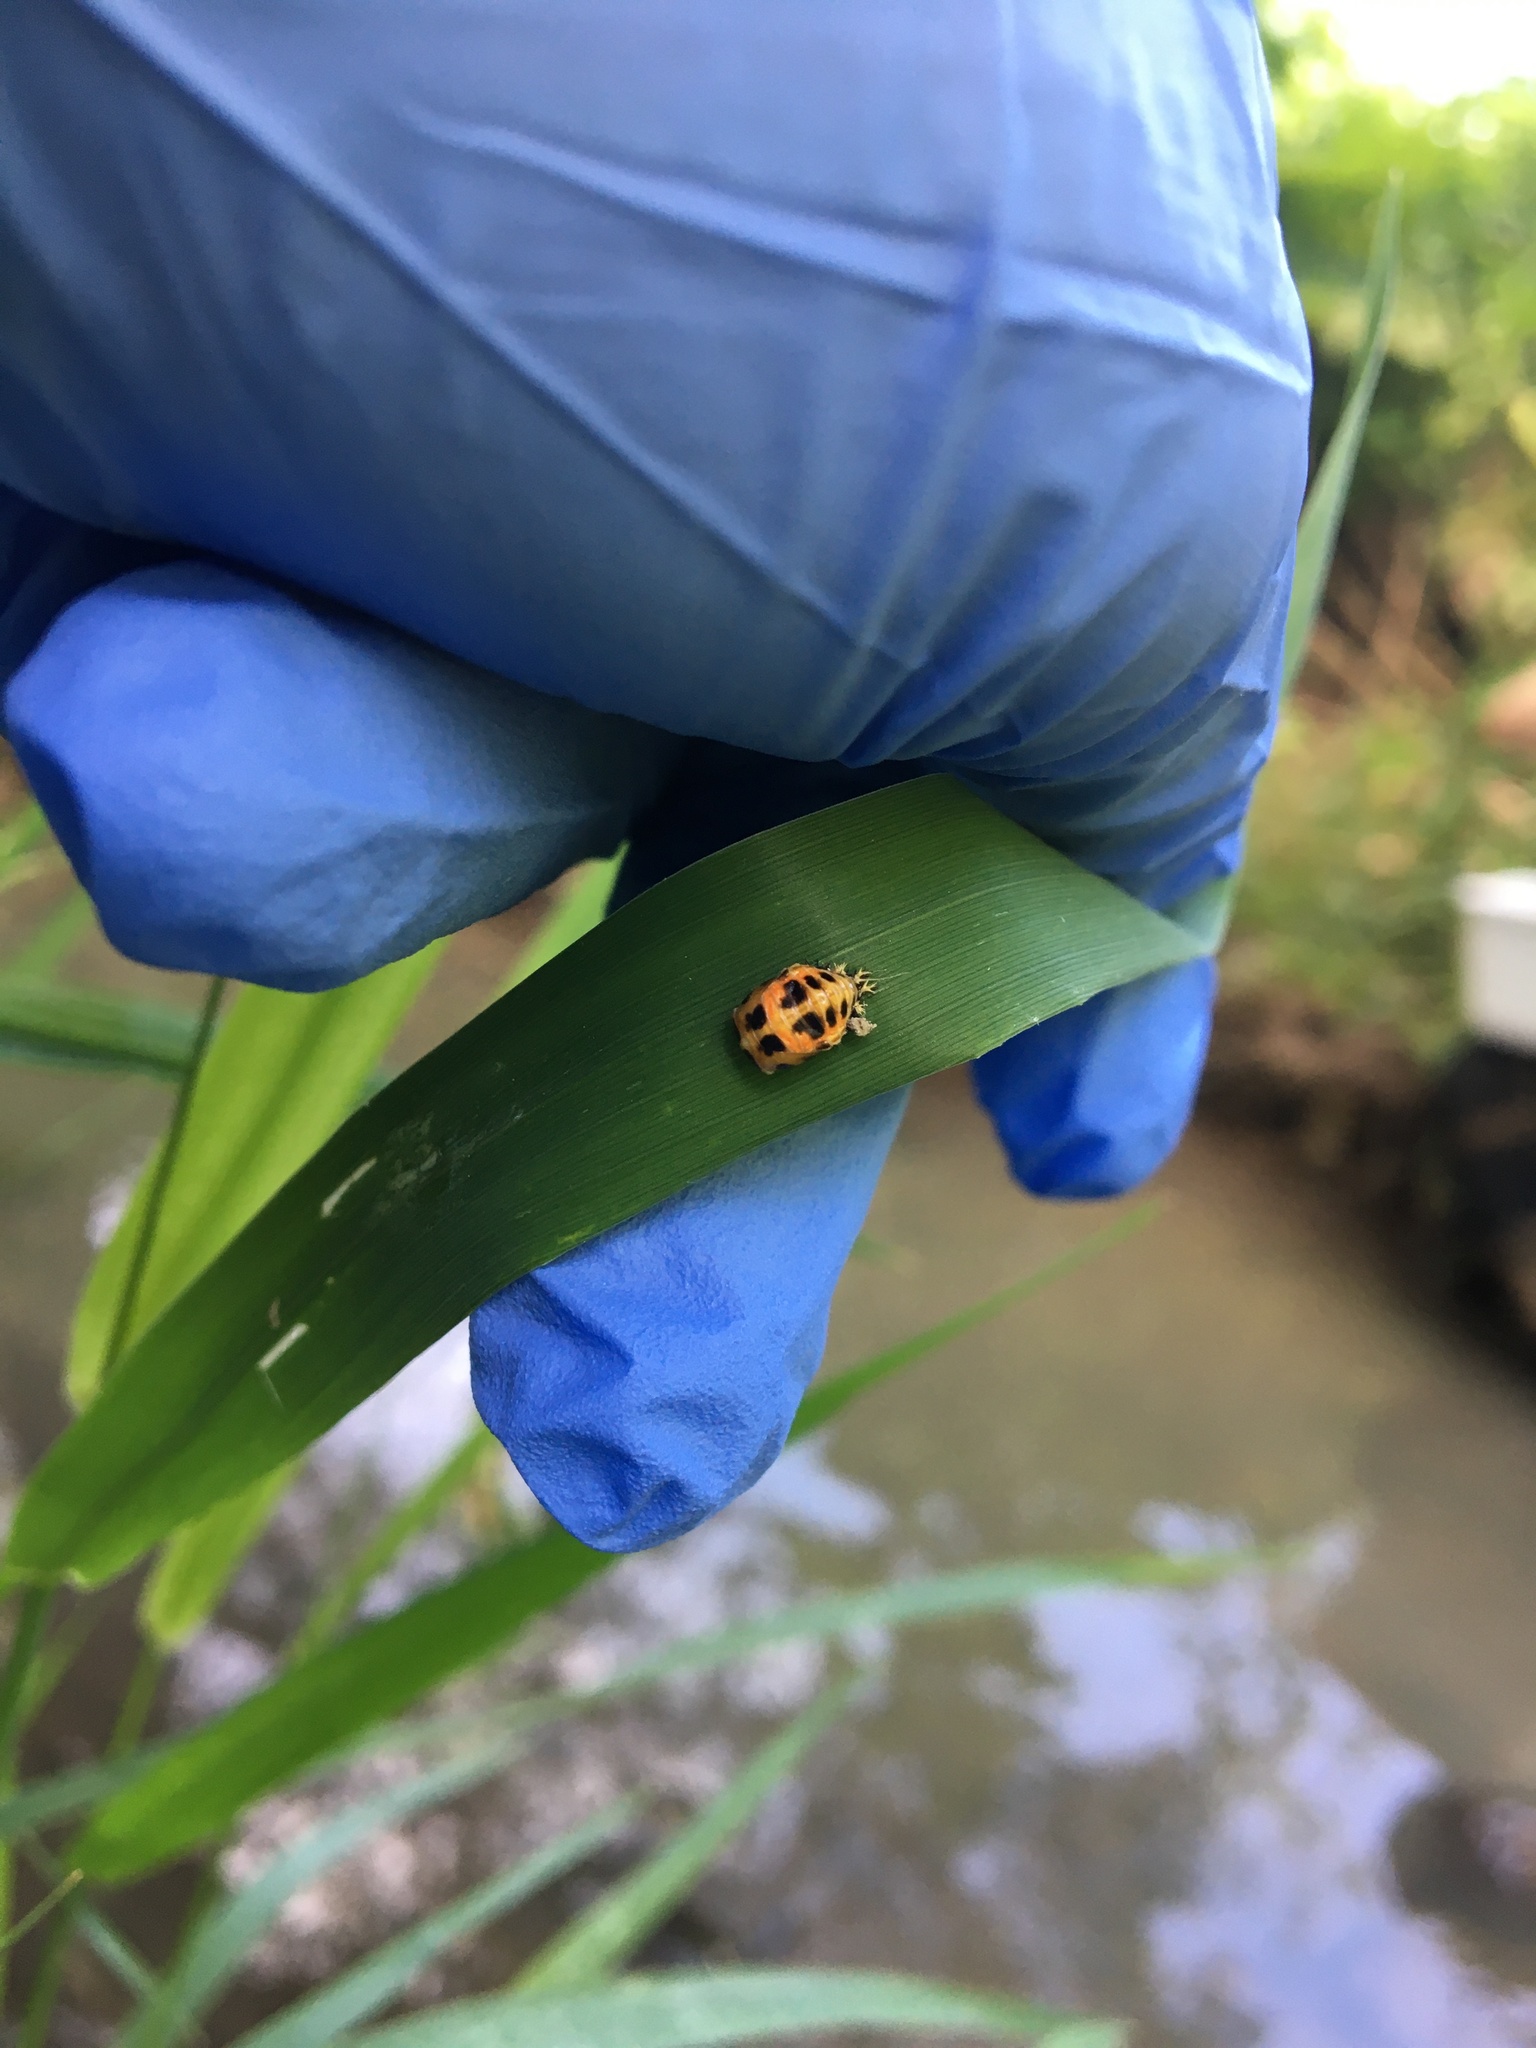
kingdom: Animalia
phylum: Arthropoda
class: Insecta
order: Coleoptera
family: Coccinellidae
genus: Harmonia
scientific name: Harmonia axyridis
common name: Harlequin ladybird
